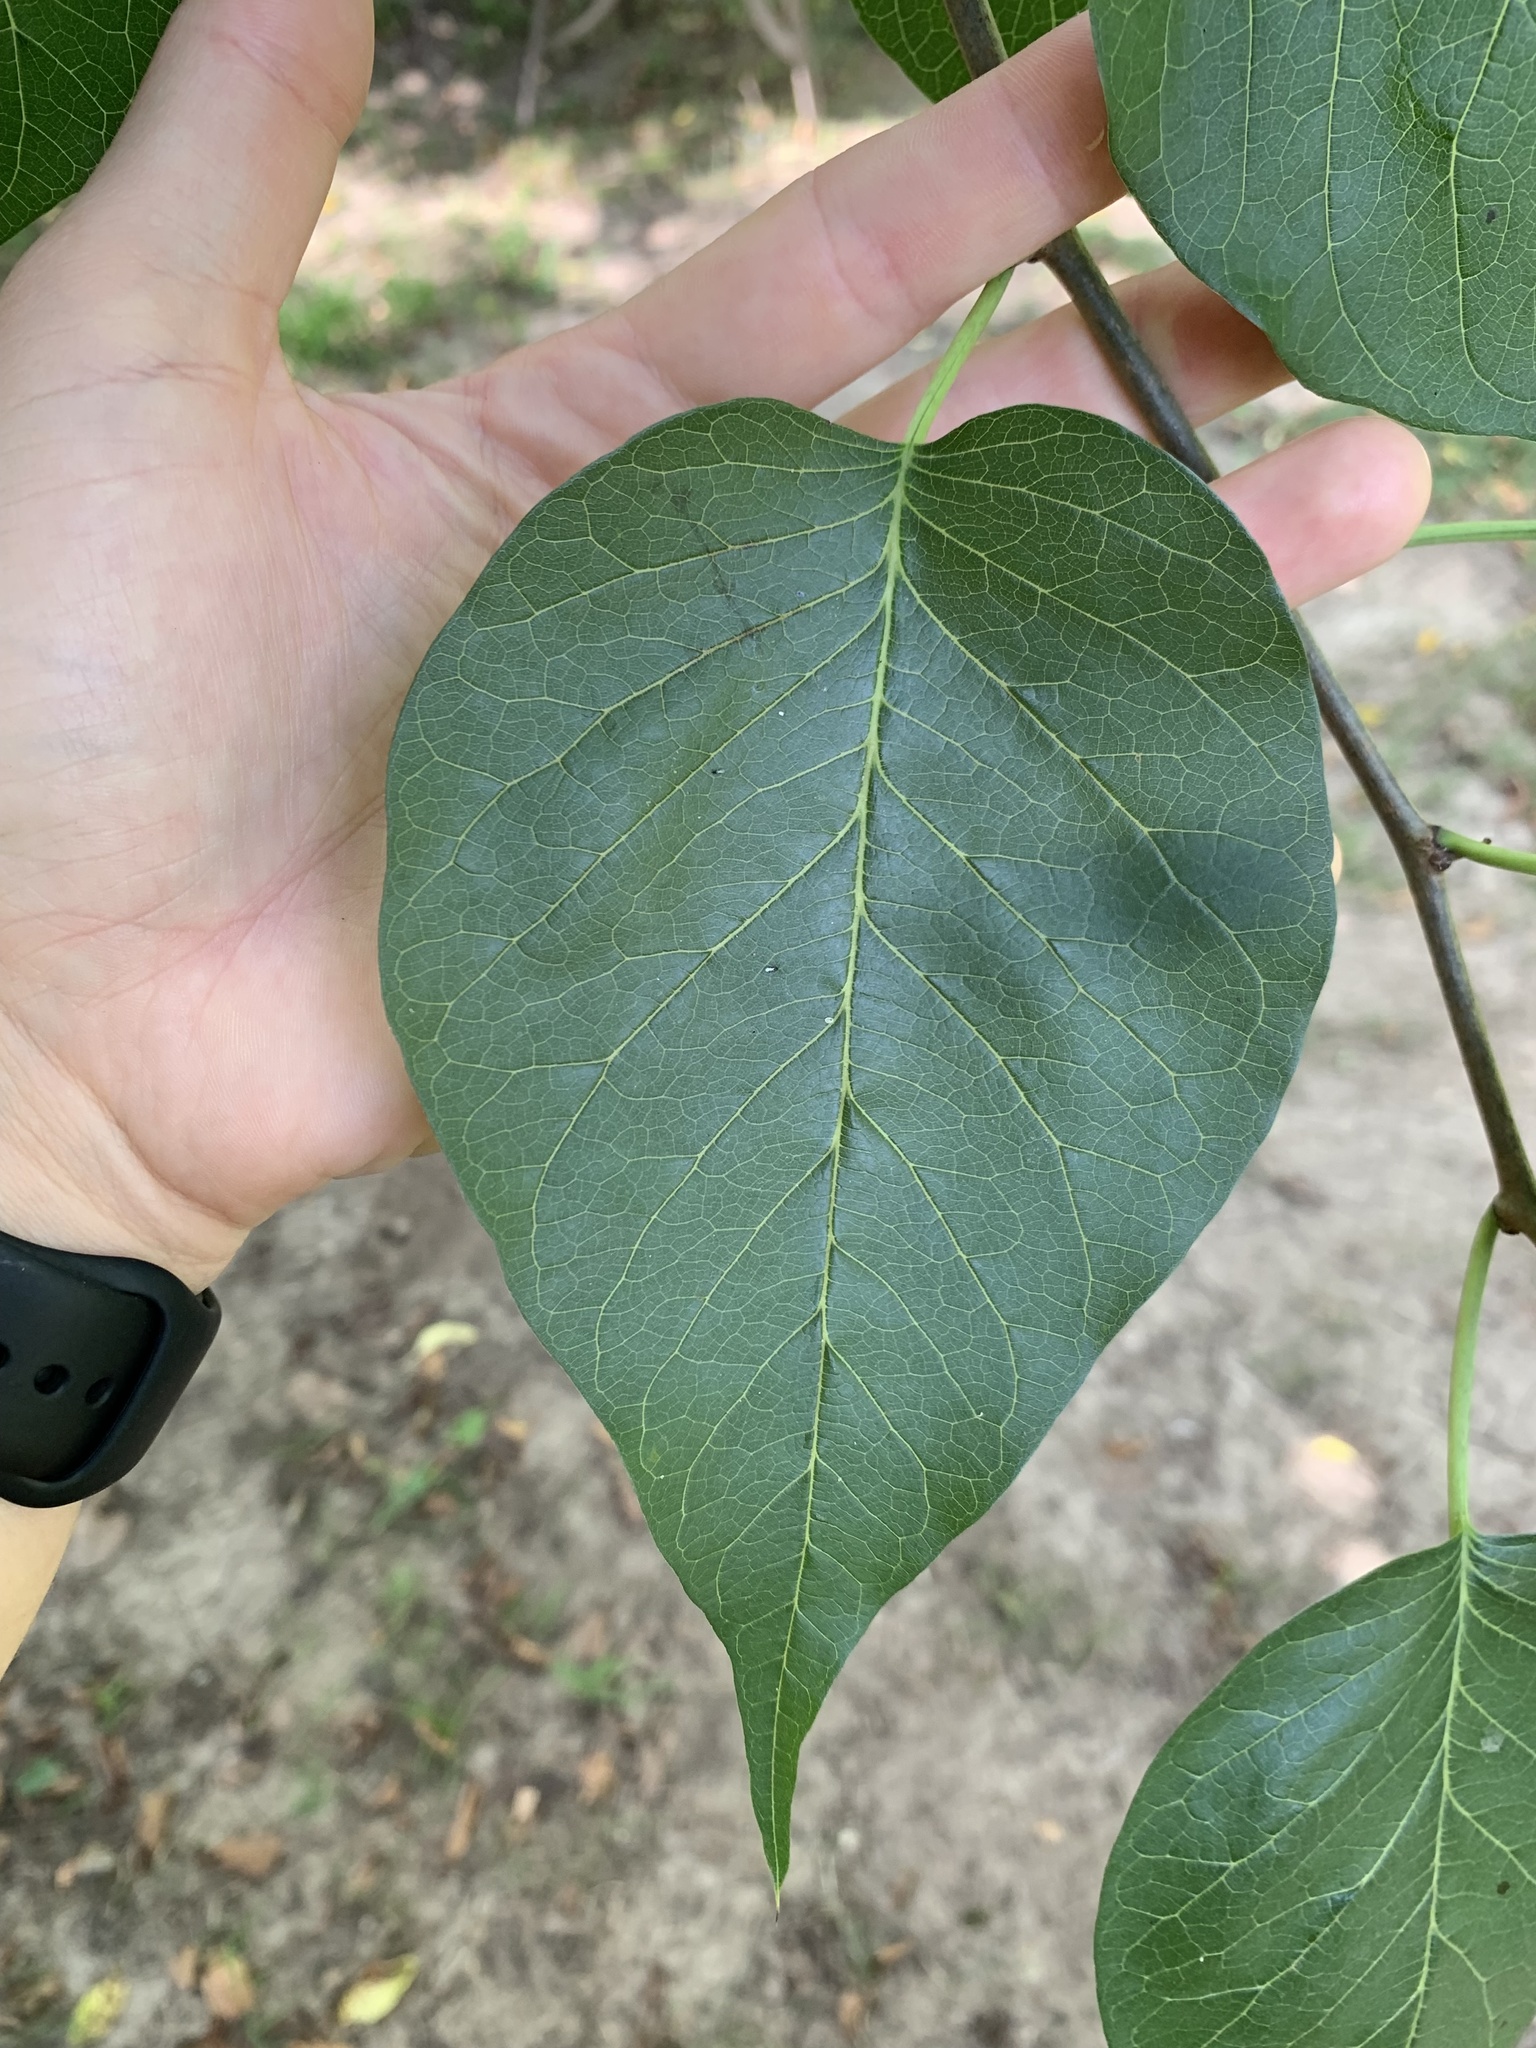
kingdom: Plantae
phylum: Tracheophyta
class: Magnoliopsida
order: Rosales
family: Moraceae
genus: Maclura
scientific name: Maclura pomifera
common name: Osage-orange
